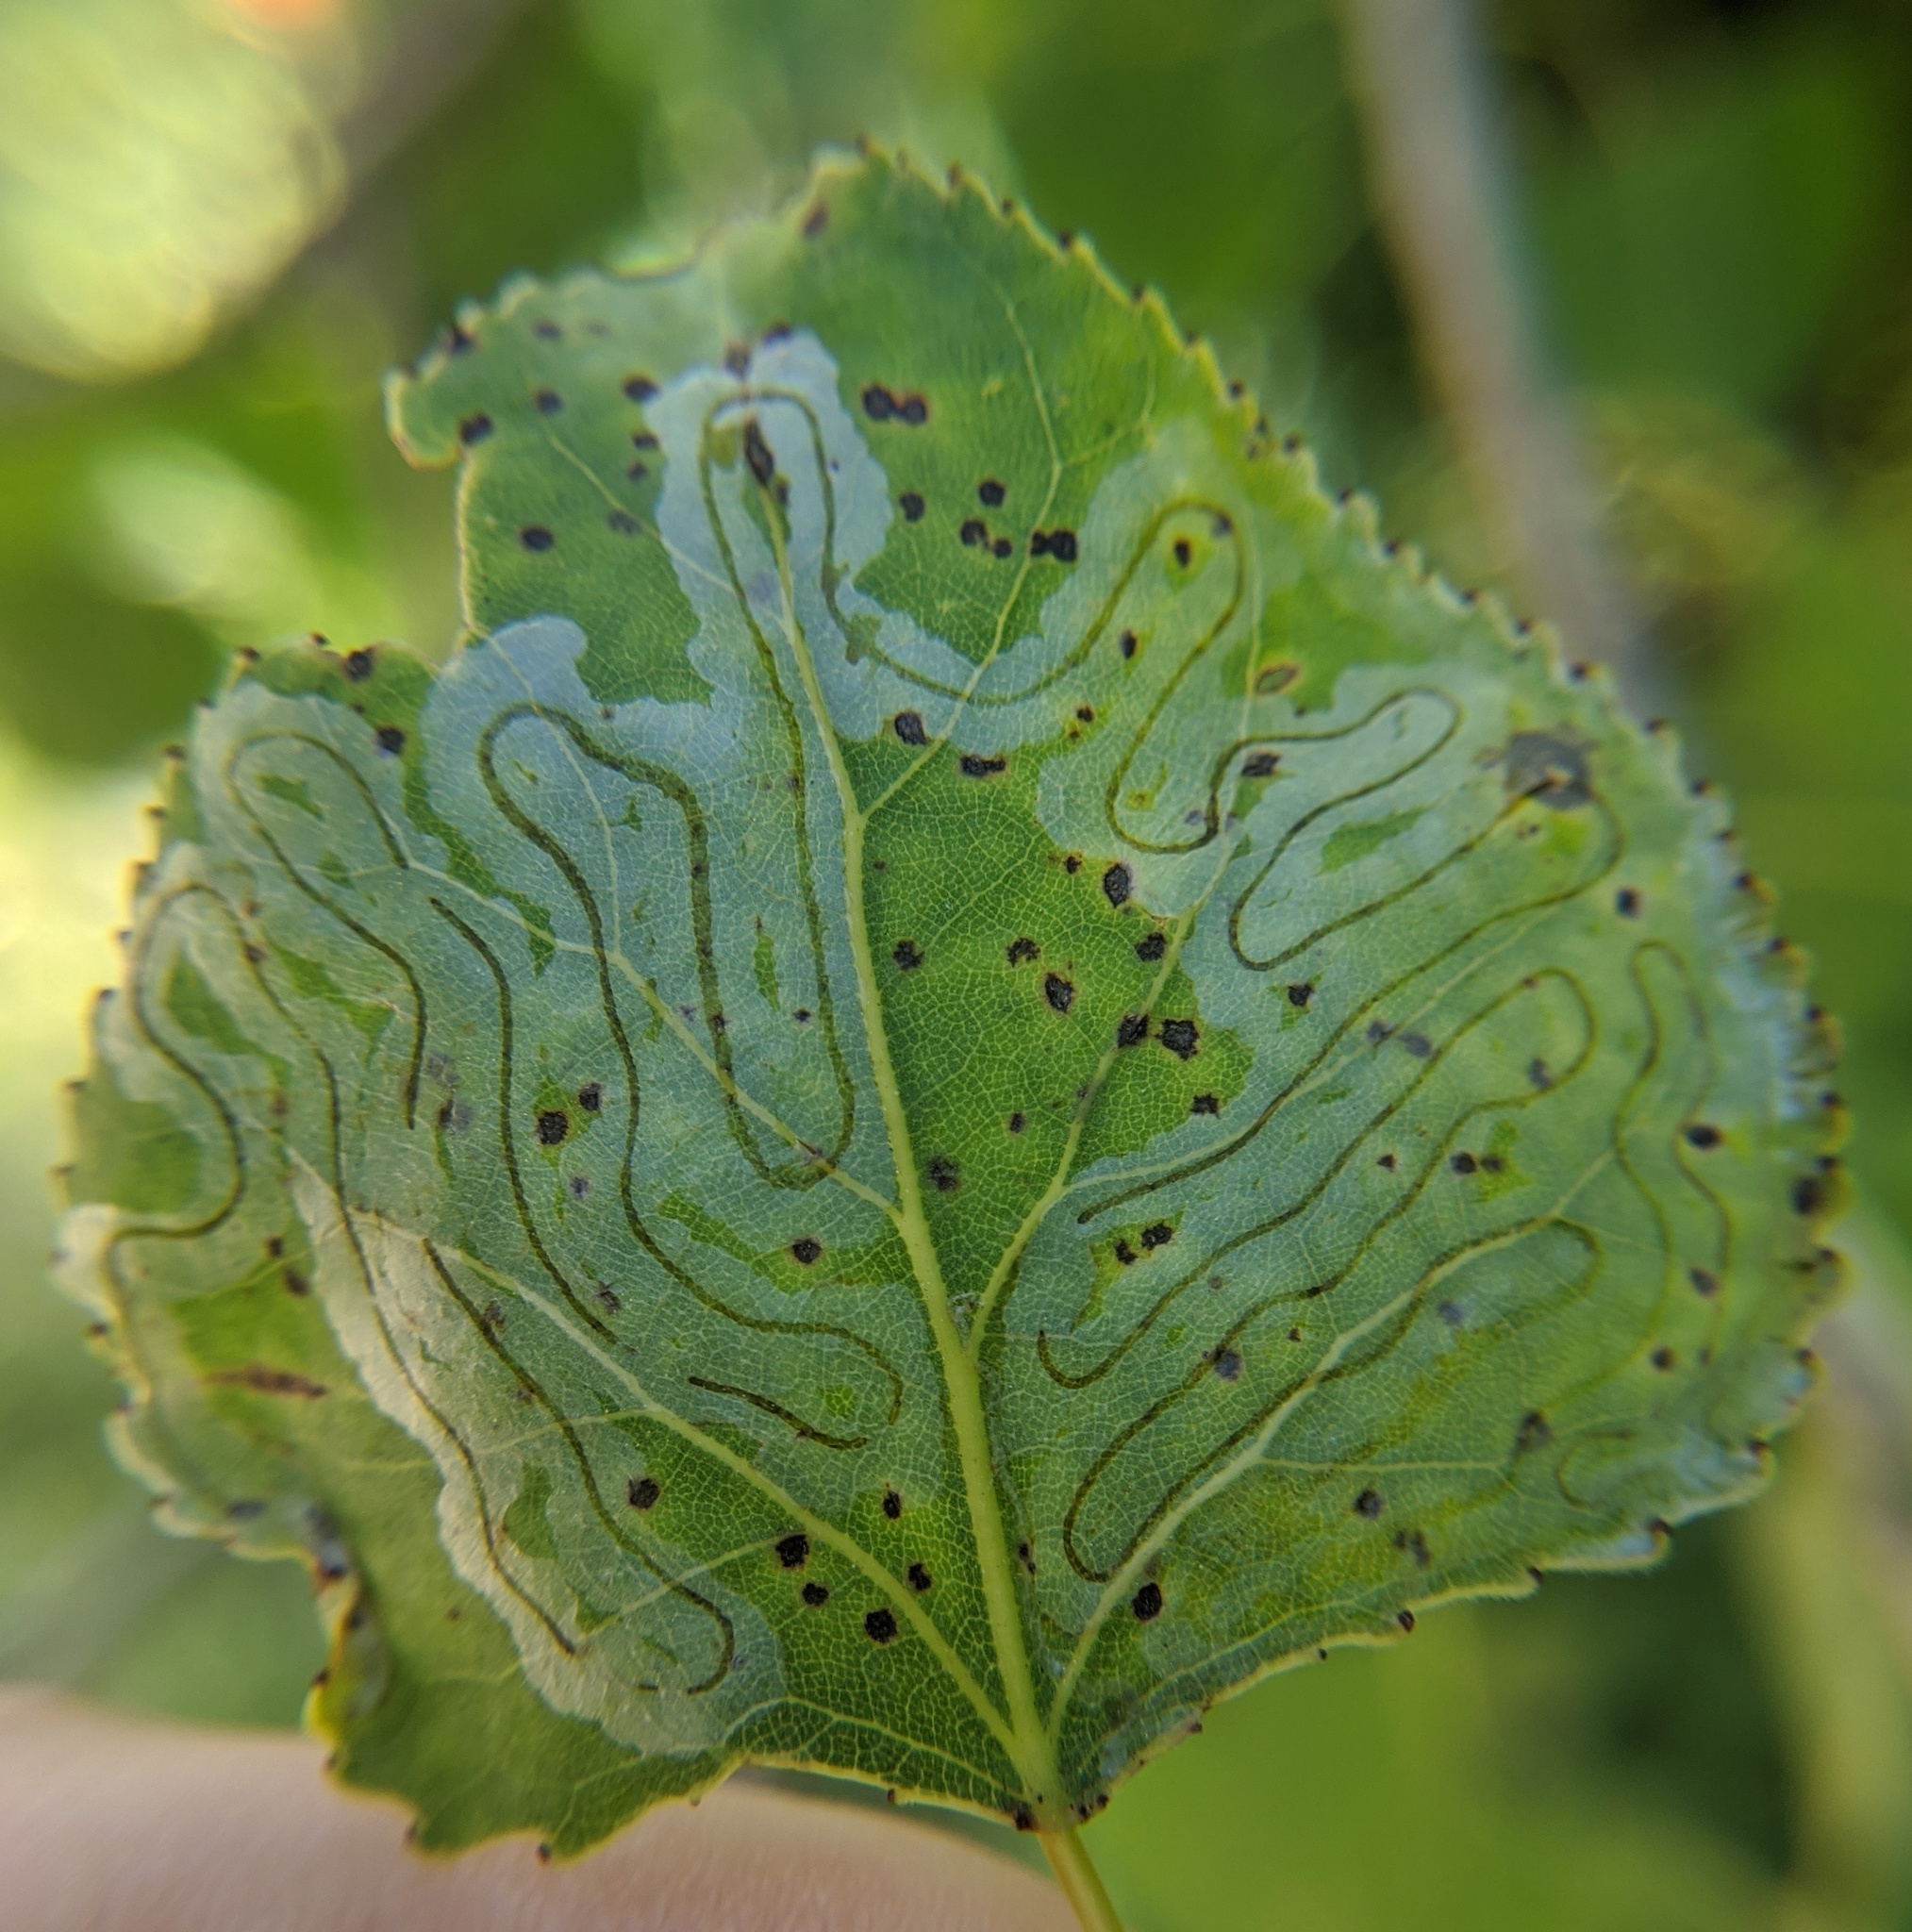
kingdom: Animalia
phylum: Arthropoda
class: Insecta
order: Lepidoptera
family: Gracillariidae
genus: Phyllocnistis
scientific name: Phyllocnistis populiella
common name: Aspen serpentine leafminer moth
